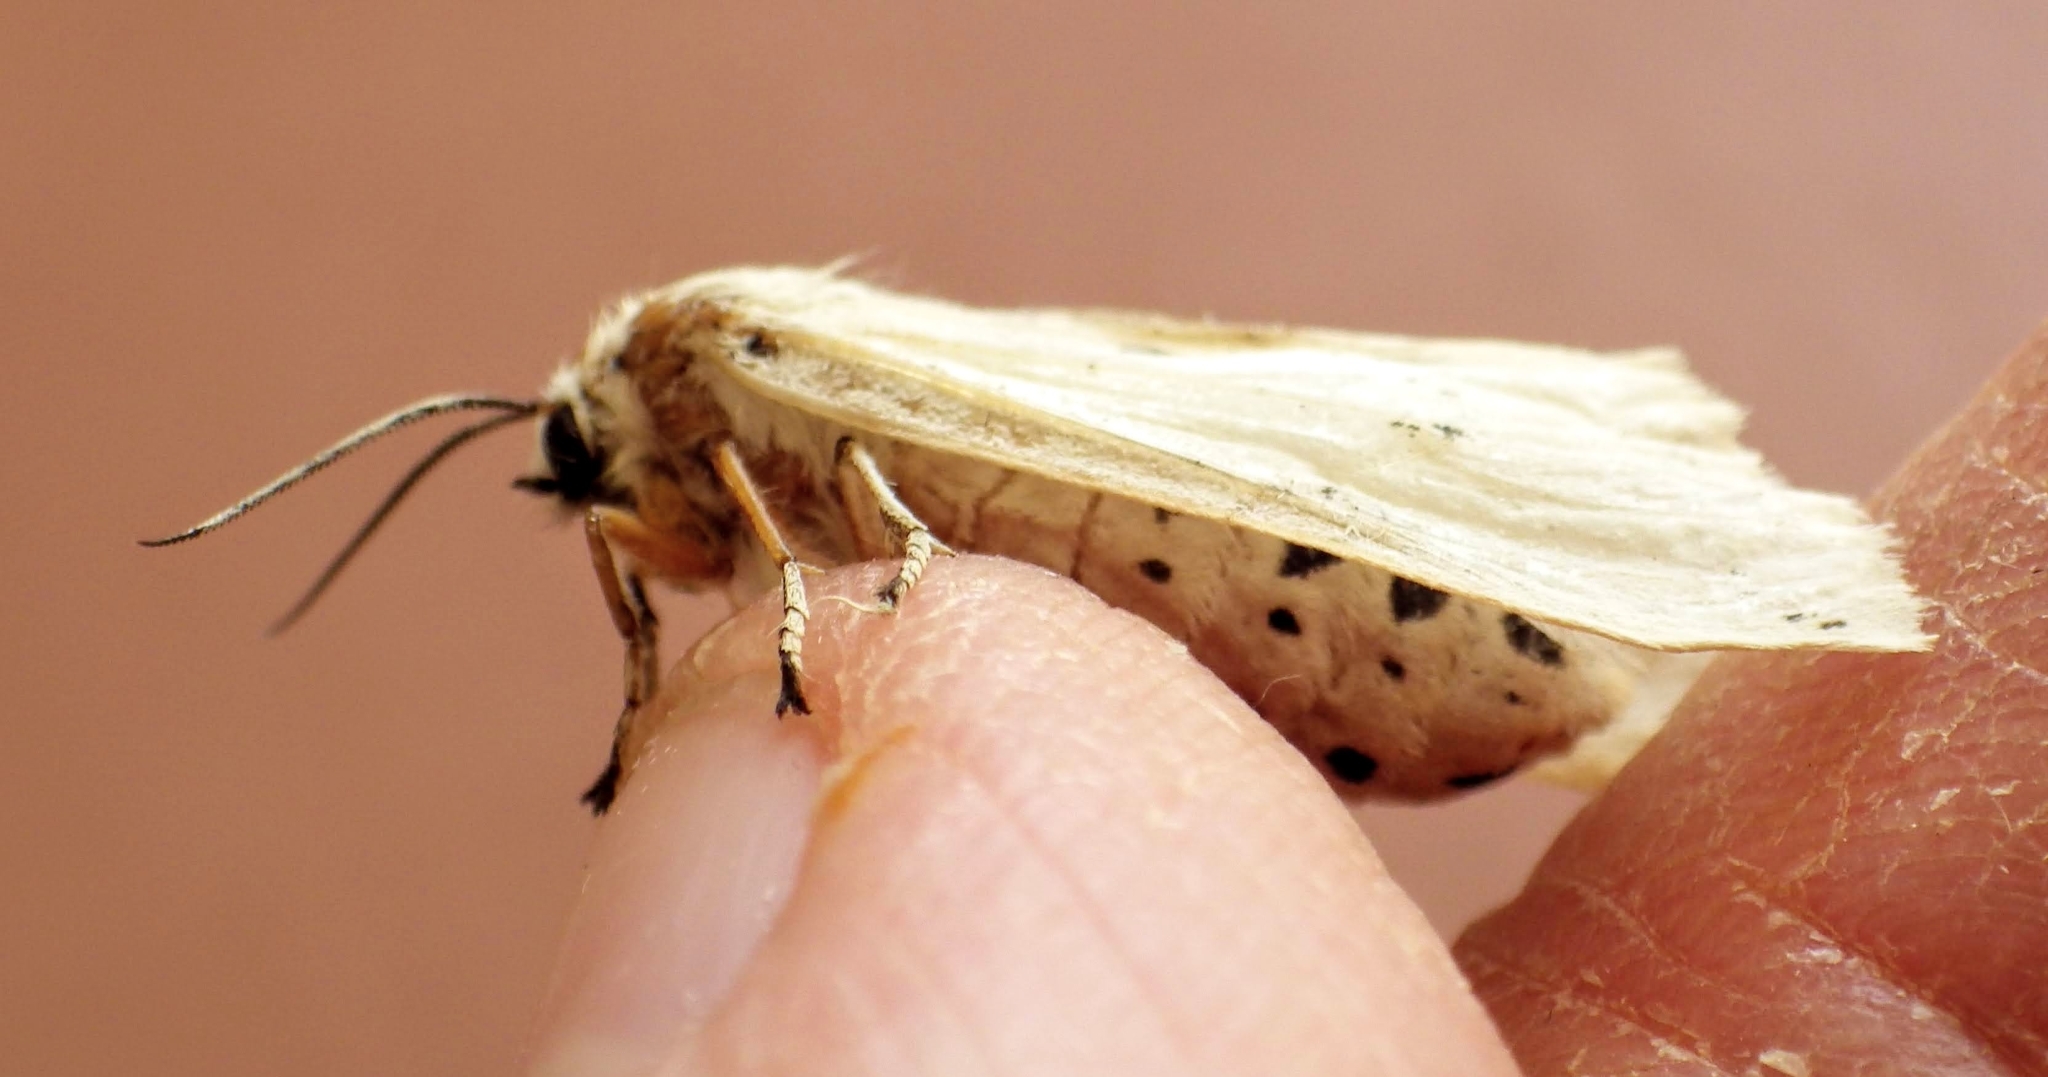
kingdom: Animalia
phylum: Arthropoda
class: Insecta
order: Lepidoptera
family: Erebidae
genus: Spilosoma
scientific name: Spilosoma lubricipeda
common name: White ermine
